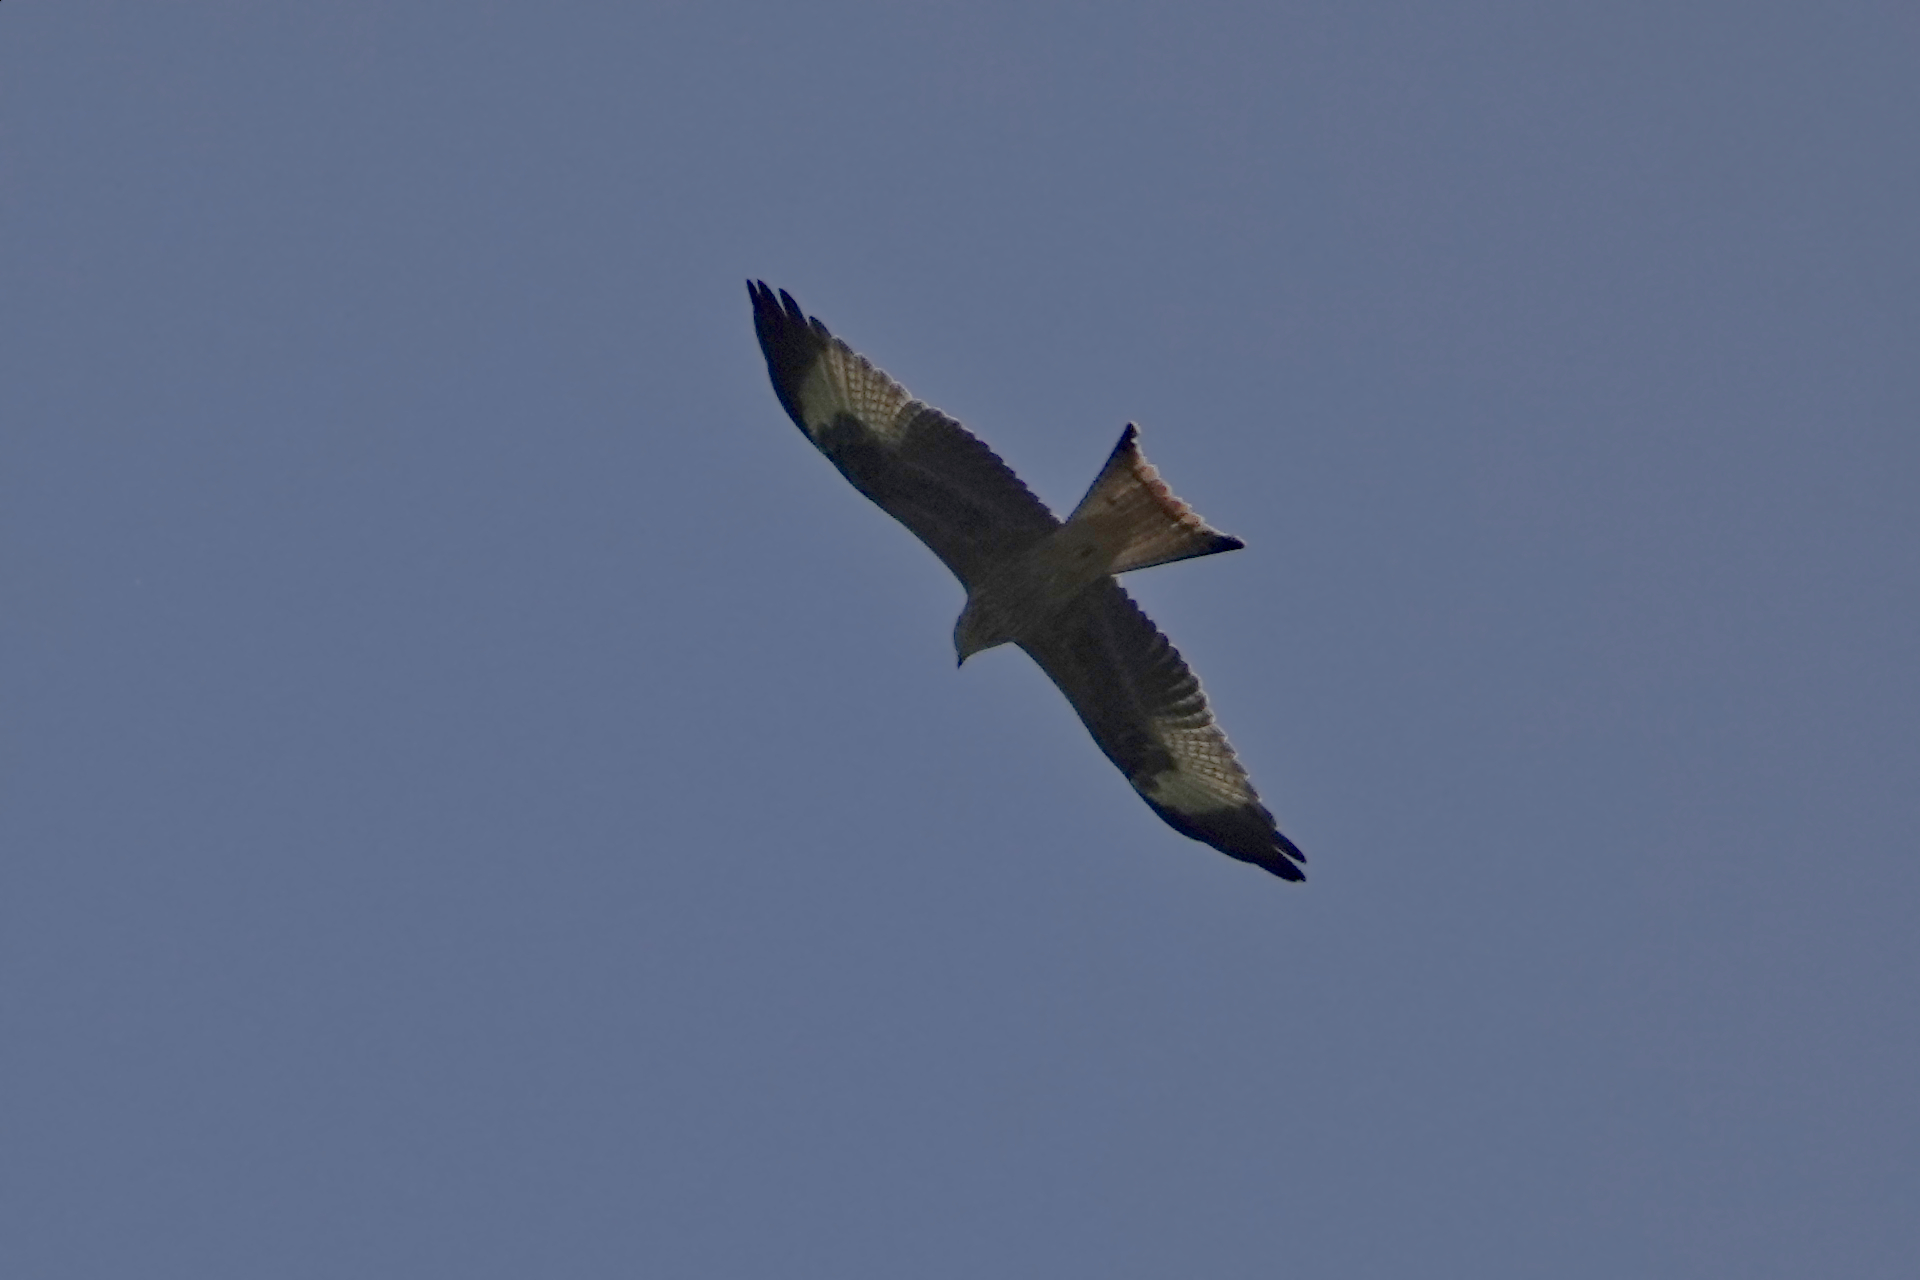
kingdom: Animalia
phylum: Chordata
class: Aves
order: Accipitriformes
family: Accipitridae
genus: Milvus
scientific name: Milvus milvus
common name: Red kite
